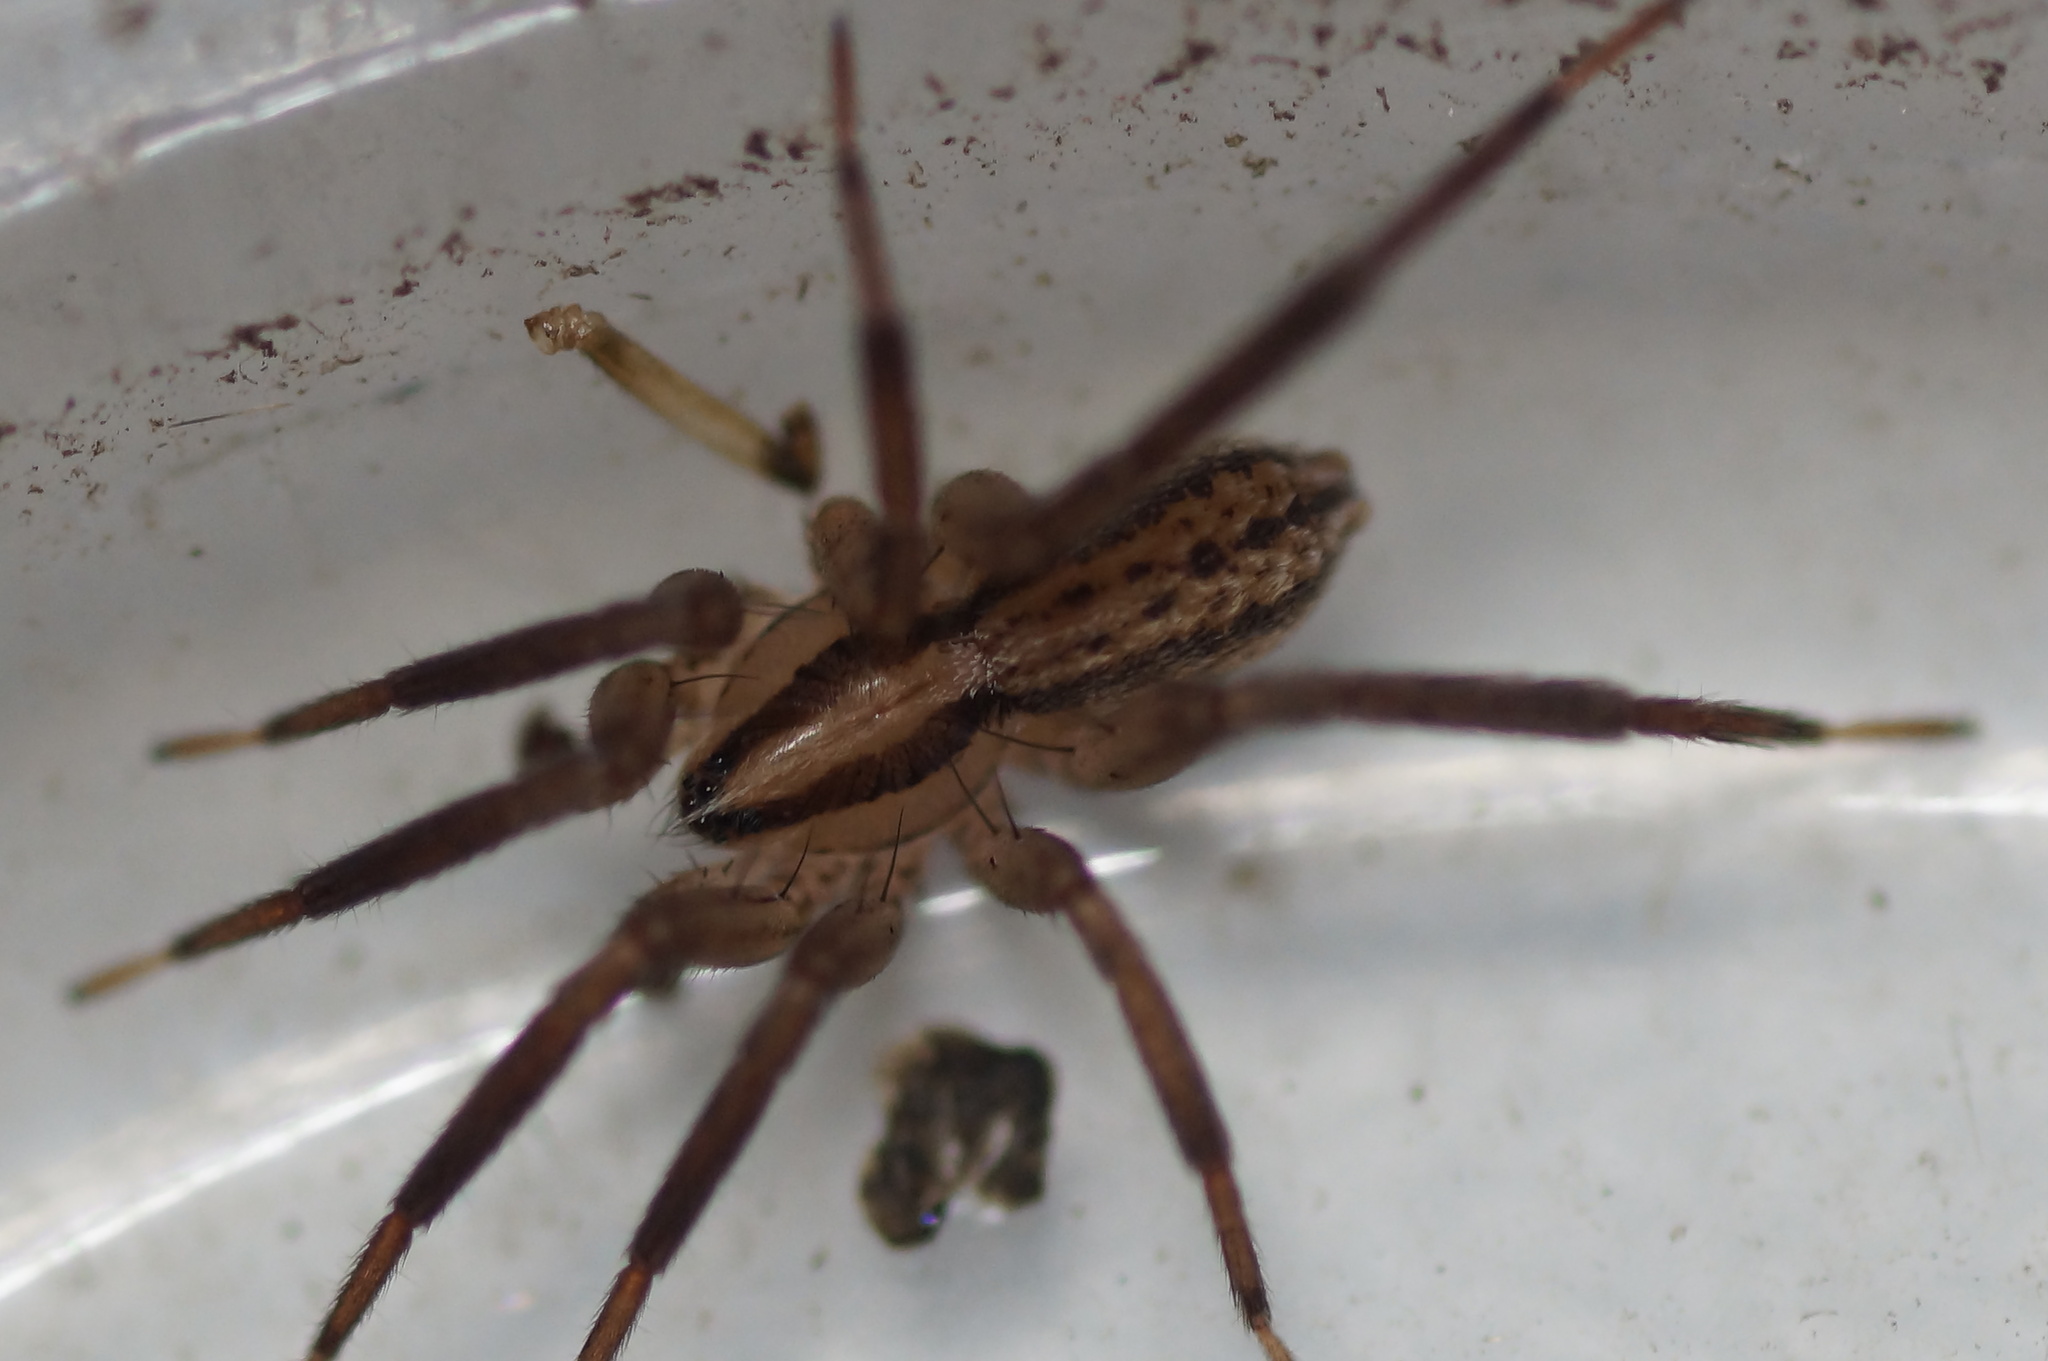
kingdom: Animalia
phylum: Arthropoda
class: Arachnida
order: Araneae
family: Miturgidae
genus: Zora
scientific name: Zora spinimana
